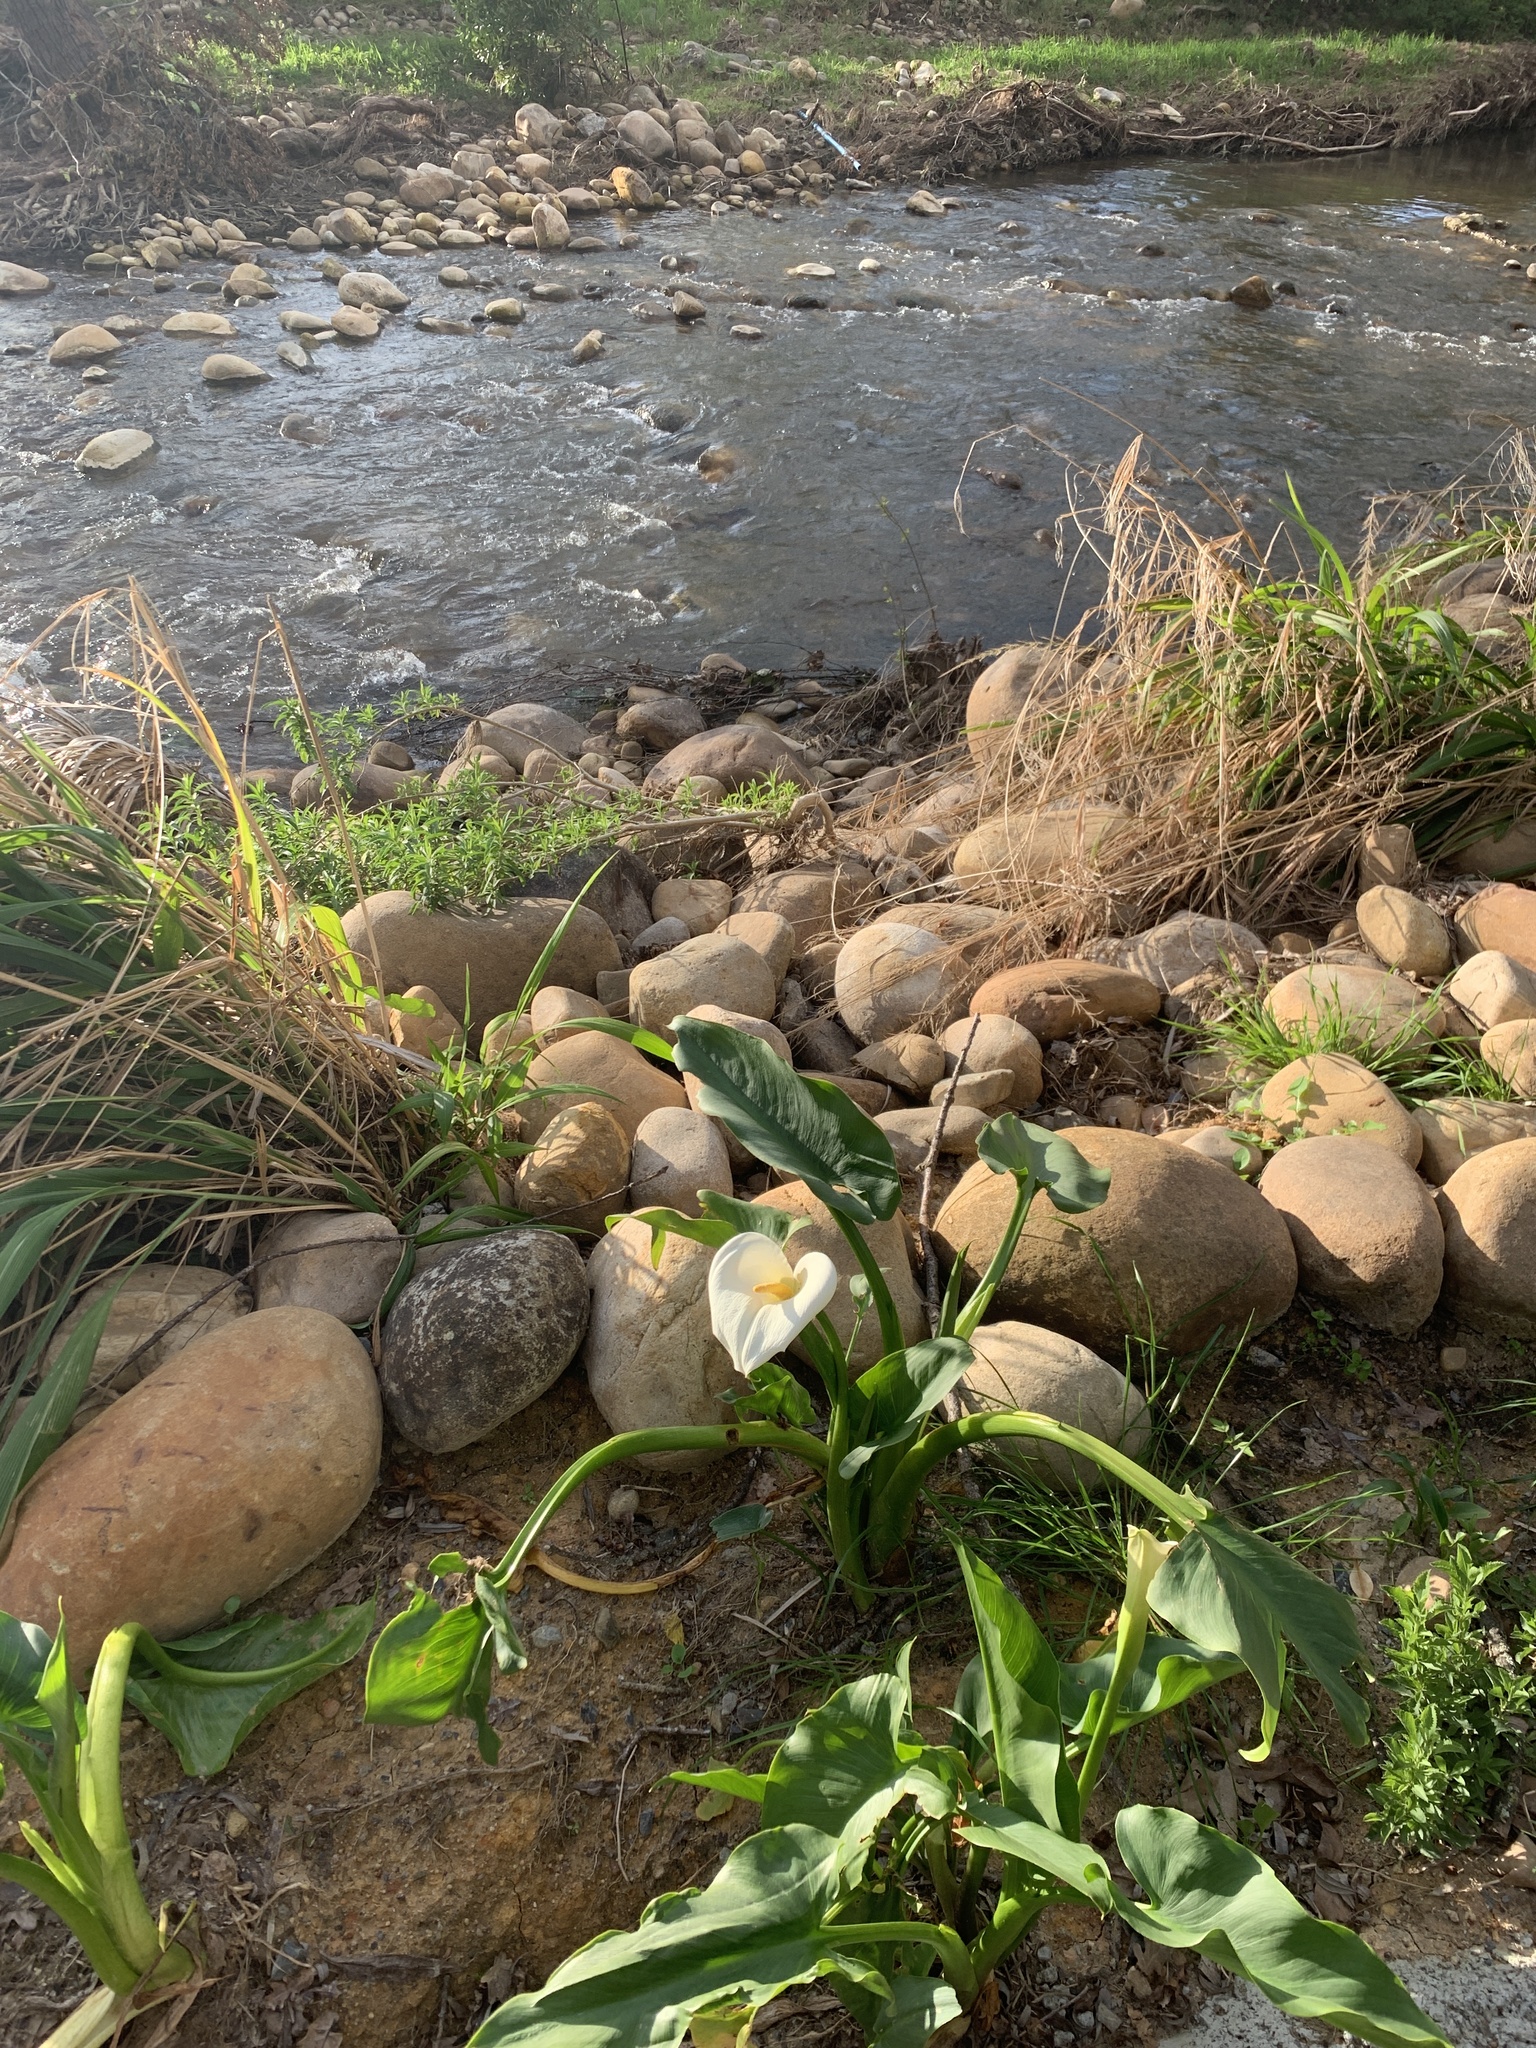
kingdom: Plantae
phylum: Tracheophyta
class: Liliopsida
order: Alismatales
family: Araceae
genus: Zantedeschia
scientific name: Zantedeschia aethiopica
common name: Altar-lily
